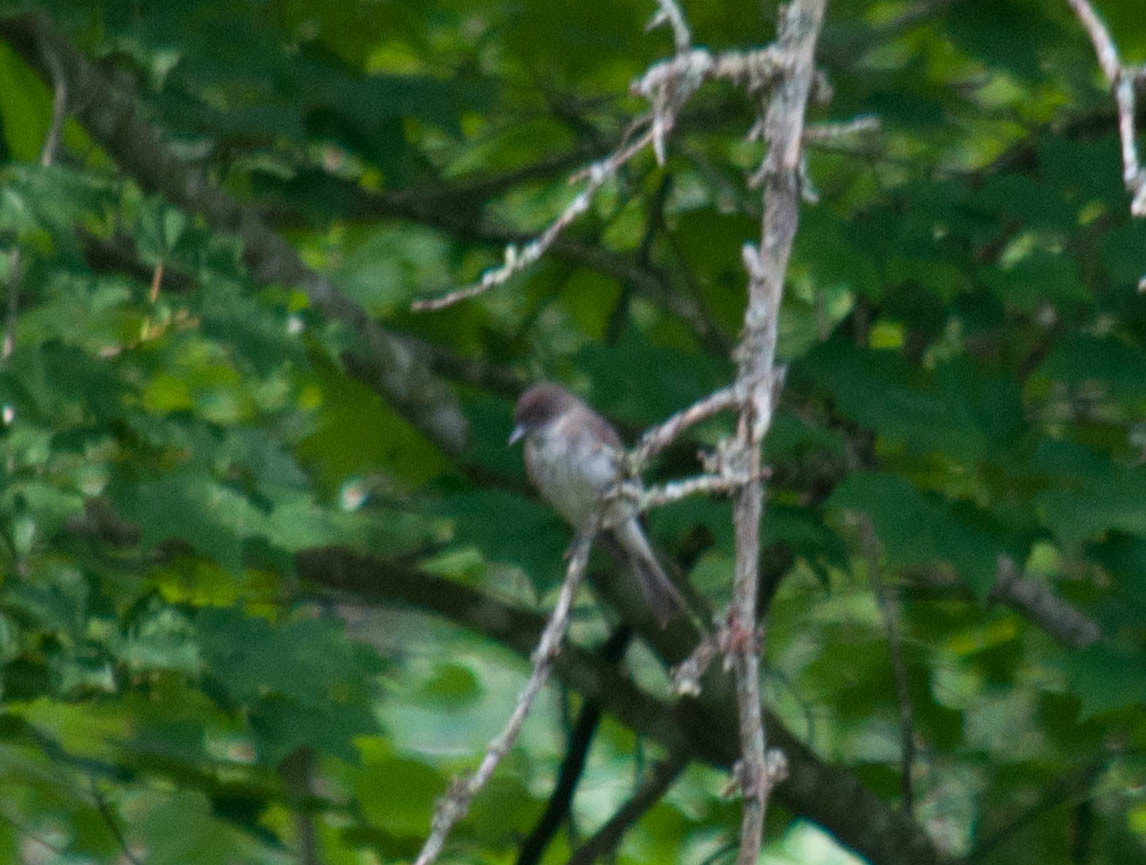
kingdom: Animalia
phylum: Chordata
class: Aves
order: Passeriformes
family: Tyrannidae
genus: Sayornis
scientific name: Sayornis phoebe
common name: Eastern phoebe
